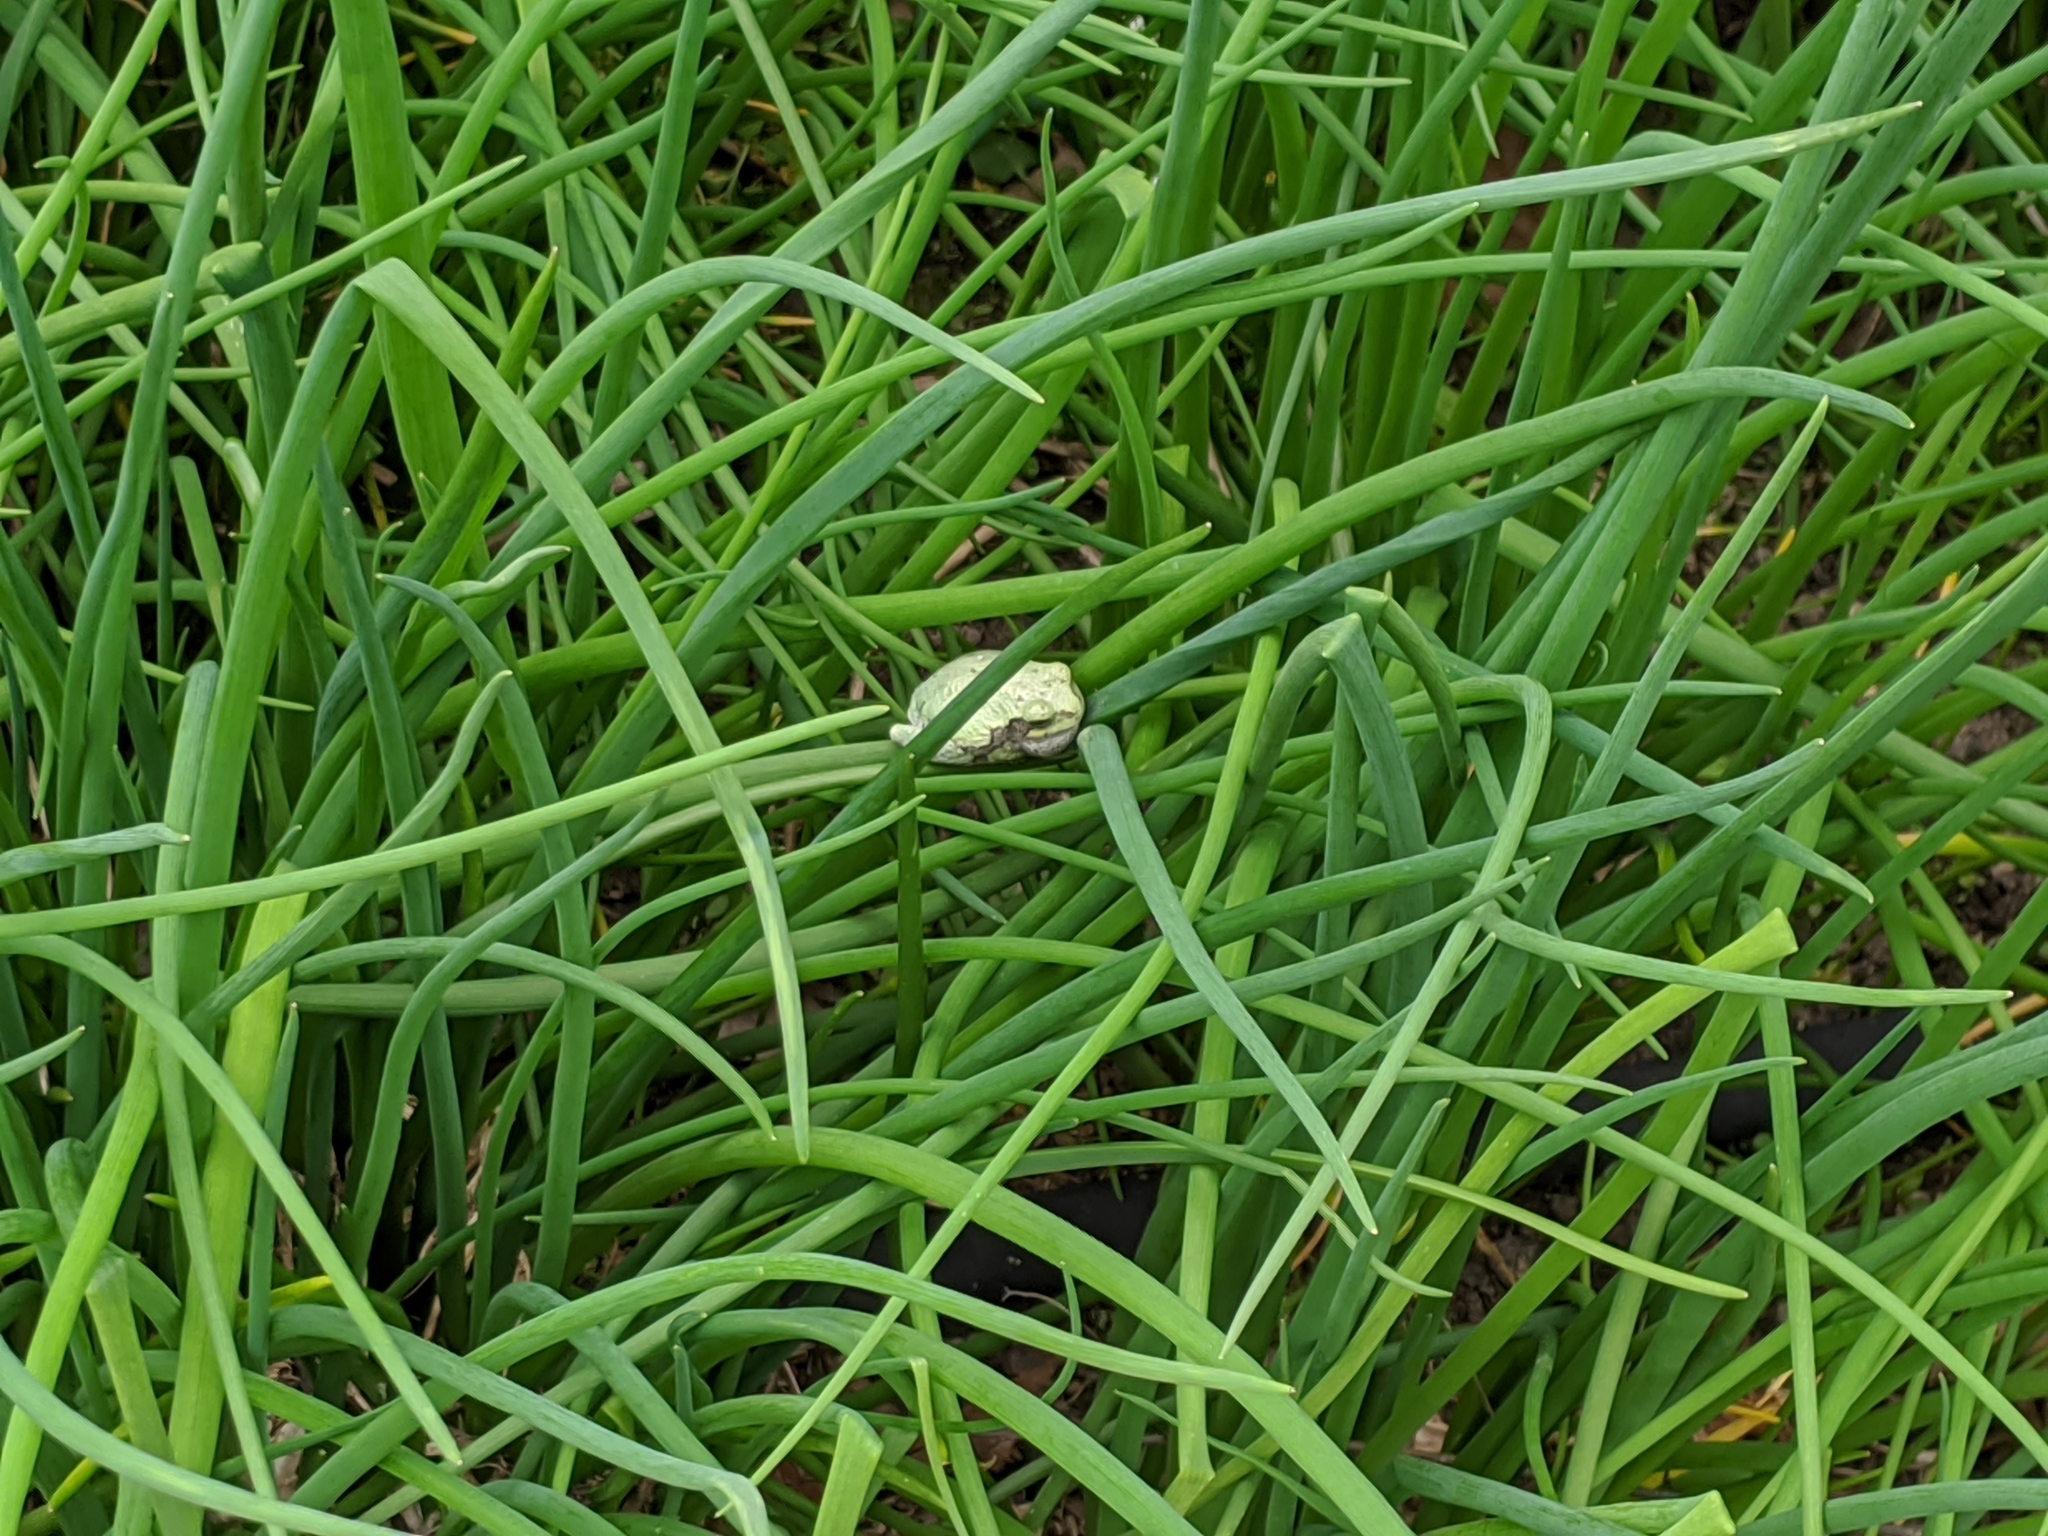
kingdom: Animalia
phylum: Chordata
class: Amphibia
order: Anura
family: Hylidae
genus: Hyla
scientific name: Hyla
